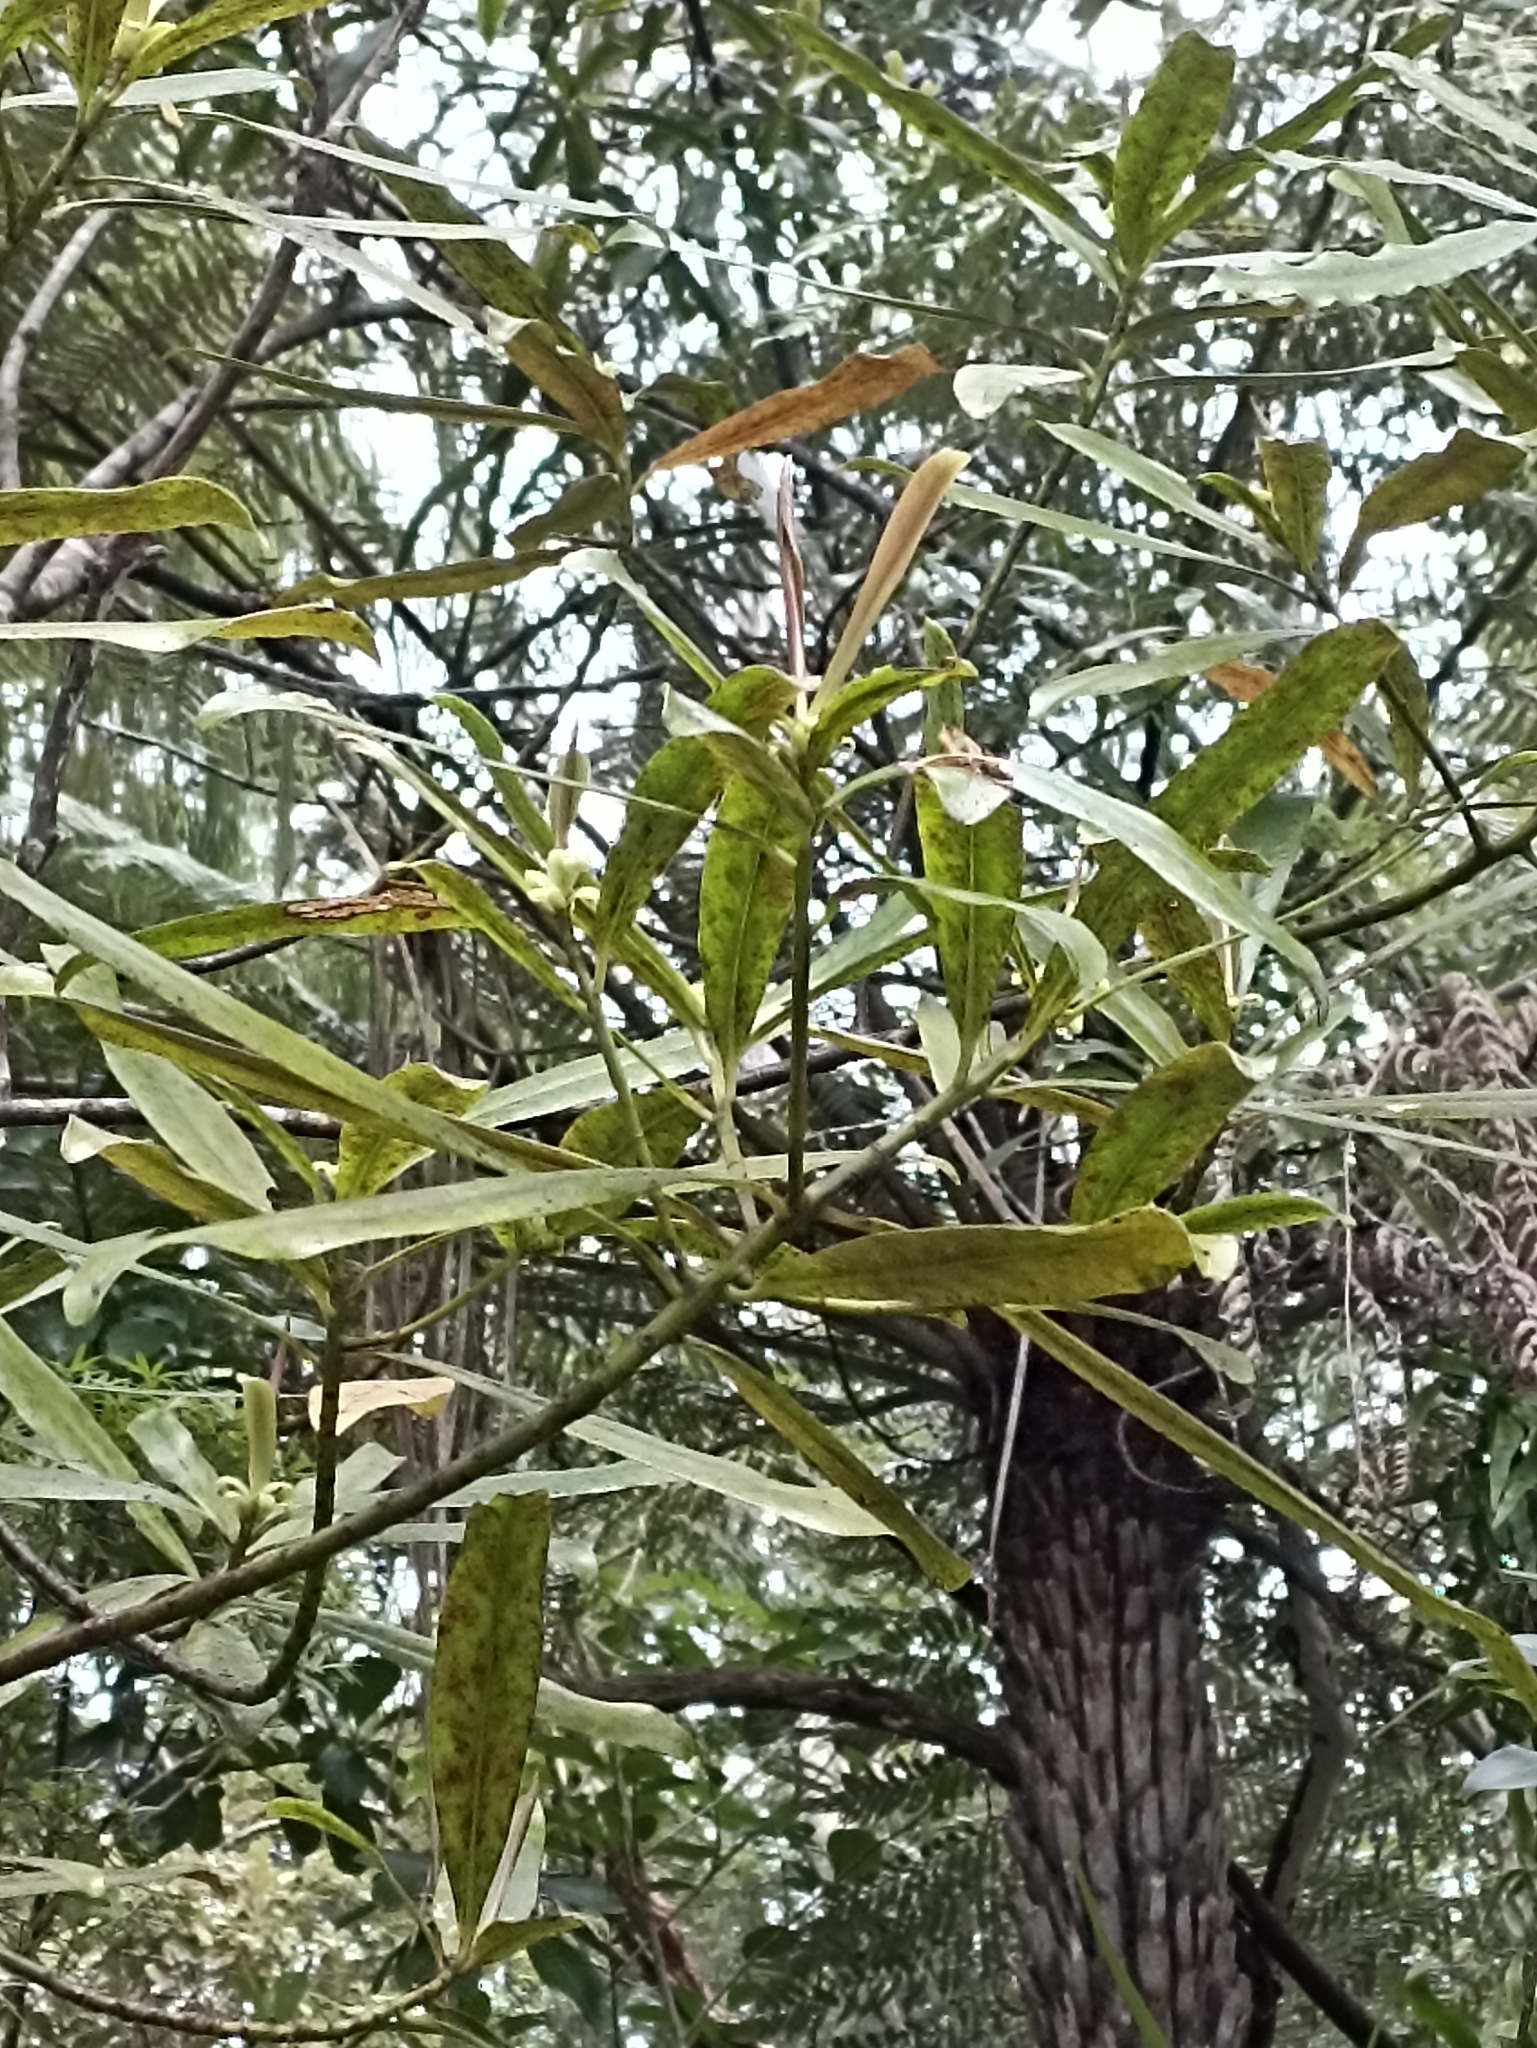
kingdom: Plantae
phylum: Tracheophyta
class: Magnoliopsida
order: Ericales
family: Primulaceae
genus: Myrsine
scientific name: Myrsine salicina
